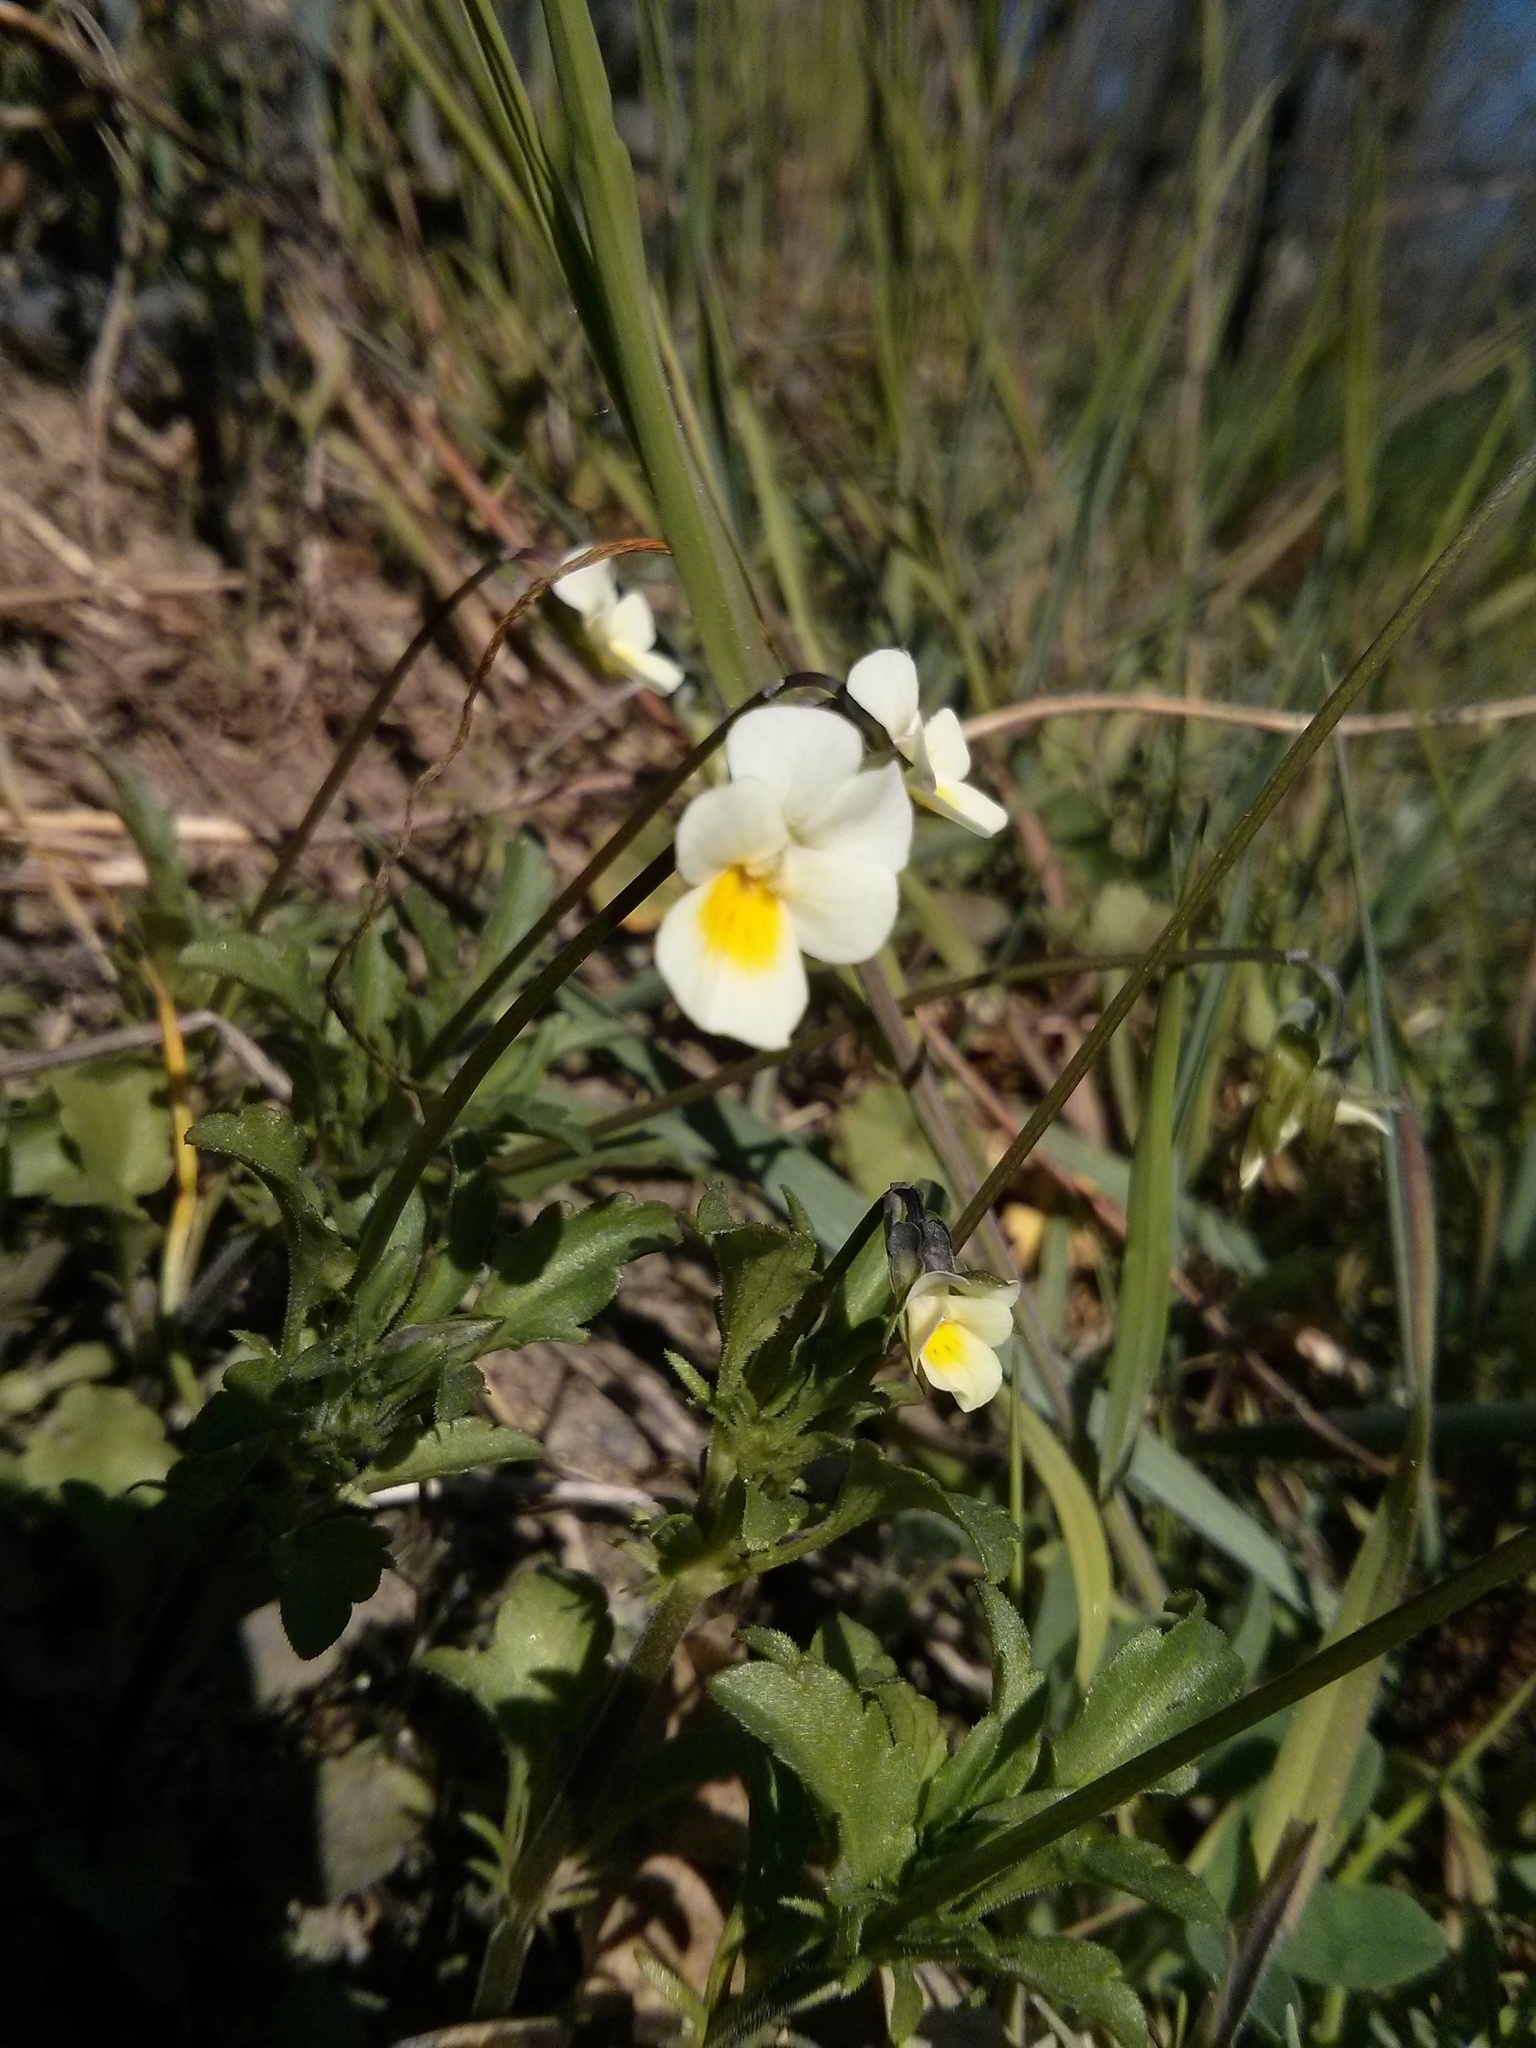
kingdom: Plantae
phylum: Tracheophyta
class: Magnoliopsida
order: Malpighiales
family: Violaceae
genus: Viola
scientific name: Viola arvensis
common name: Field pansy
